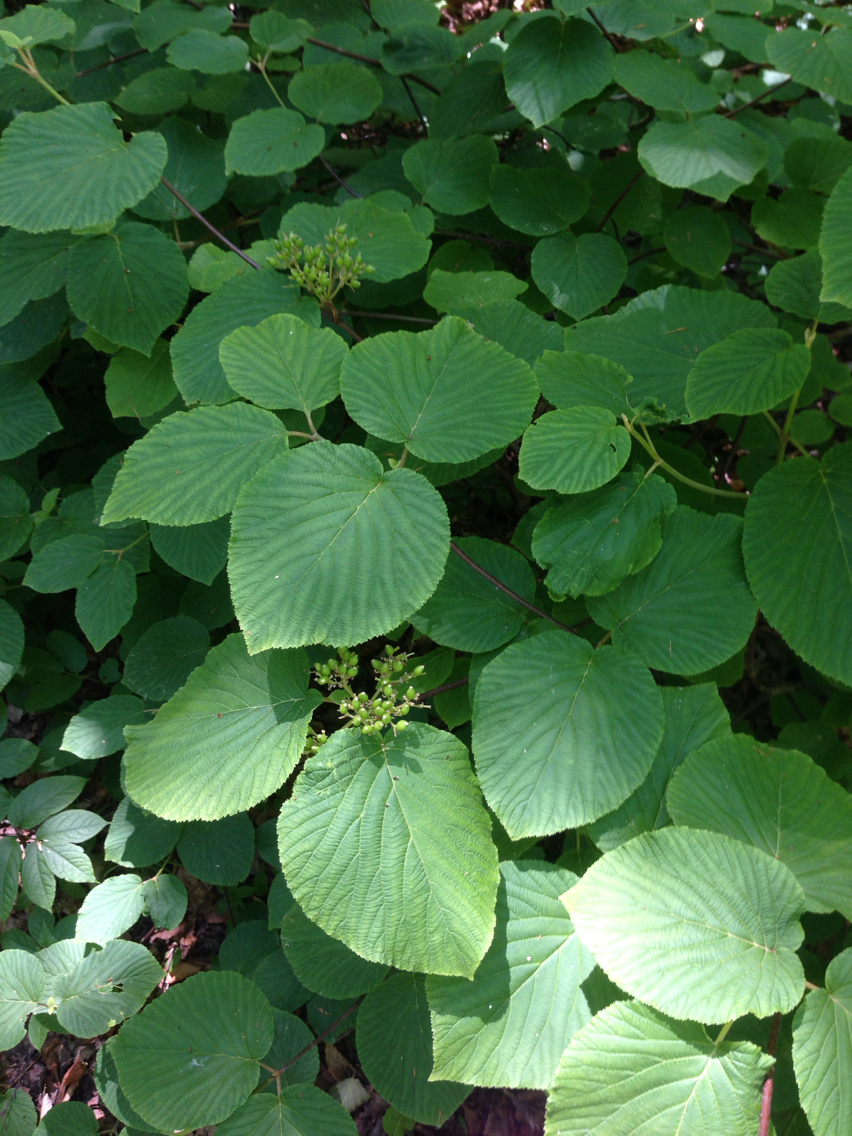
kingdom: Plantae
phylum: Tracheophyta
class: Magnoliopsida
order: Dipsacales
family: Viburnaceae
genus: Viburnum
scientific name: Viburnum lantanoides
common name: Hobblebush
